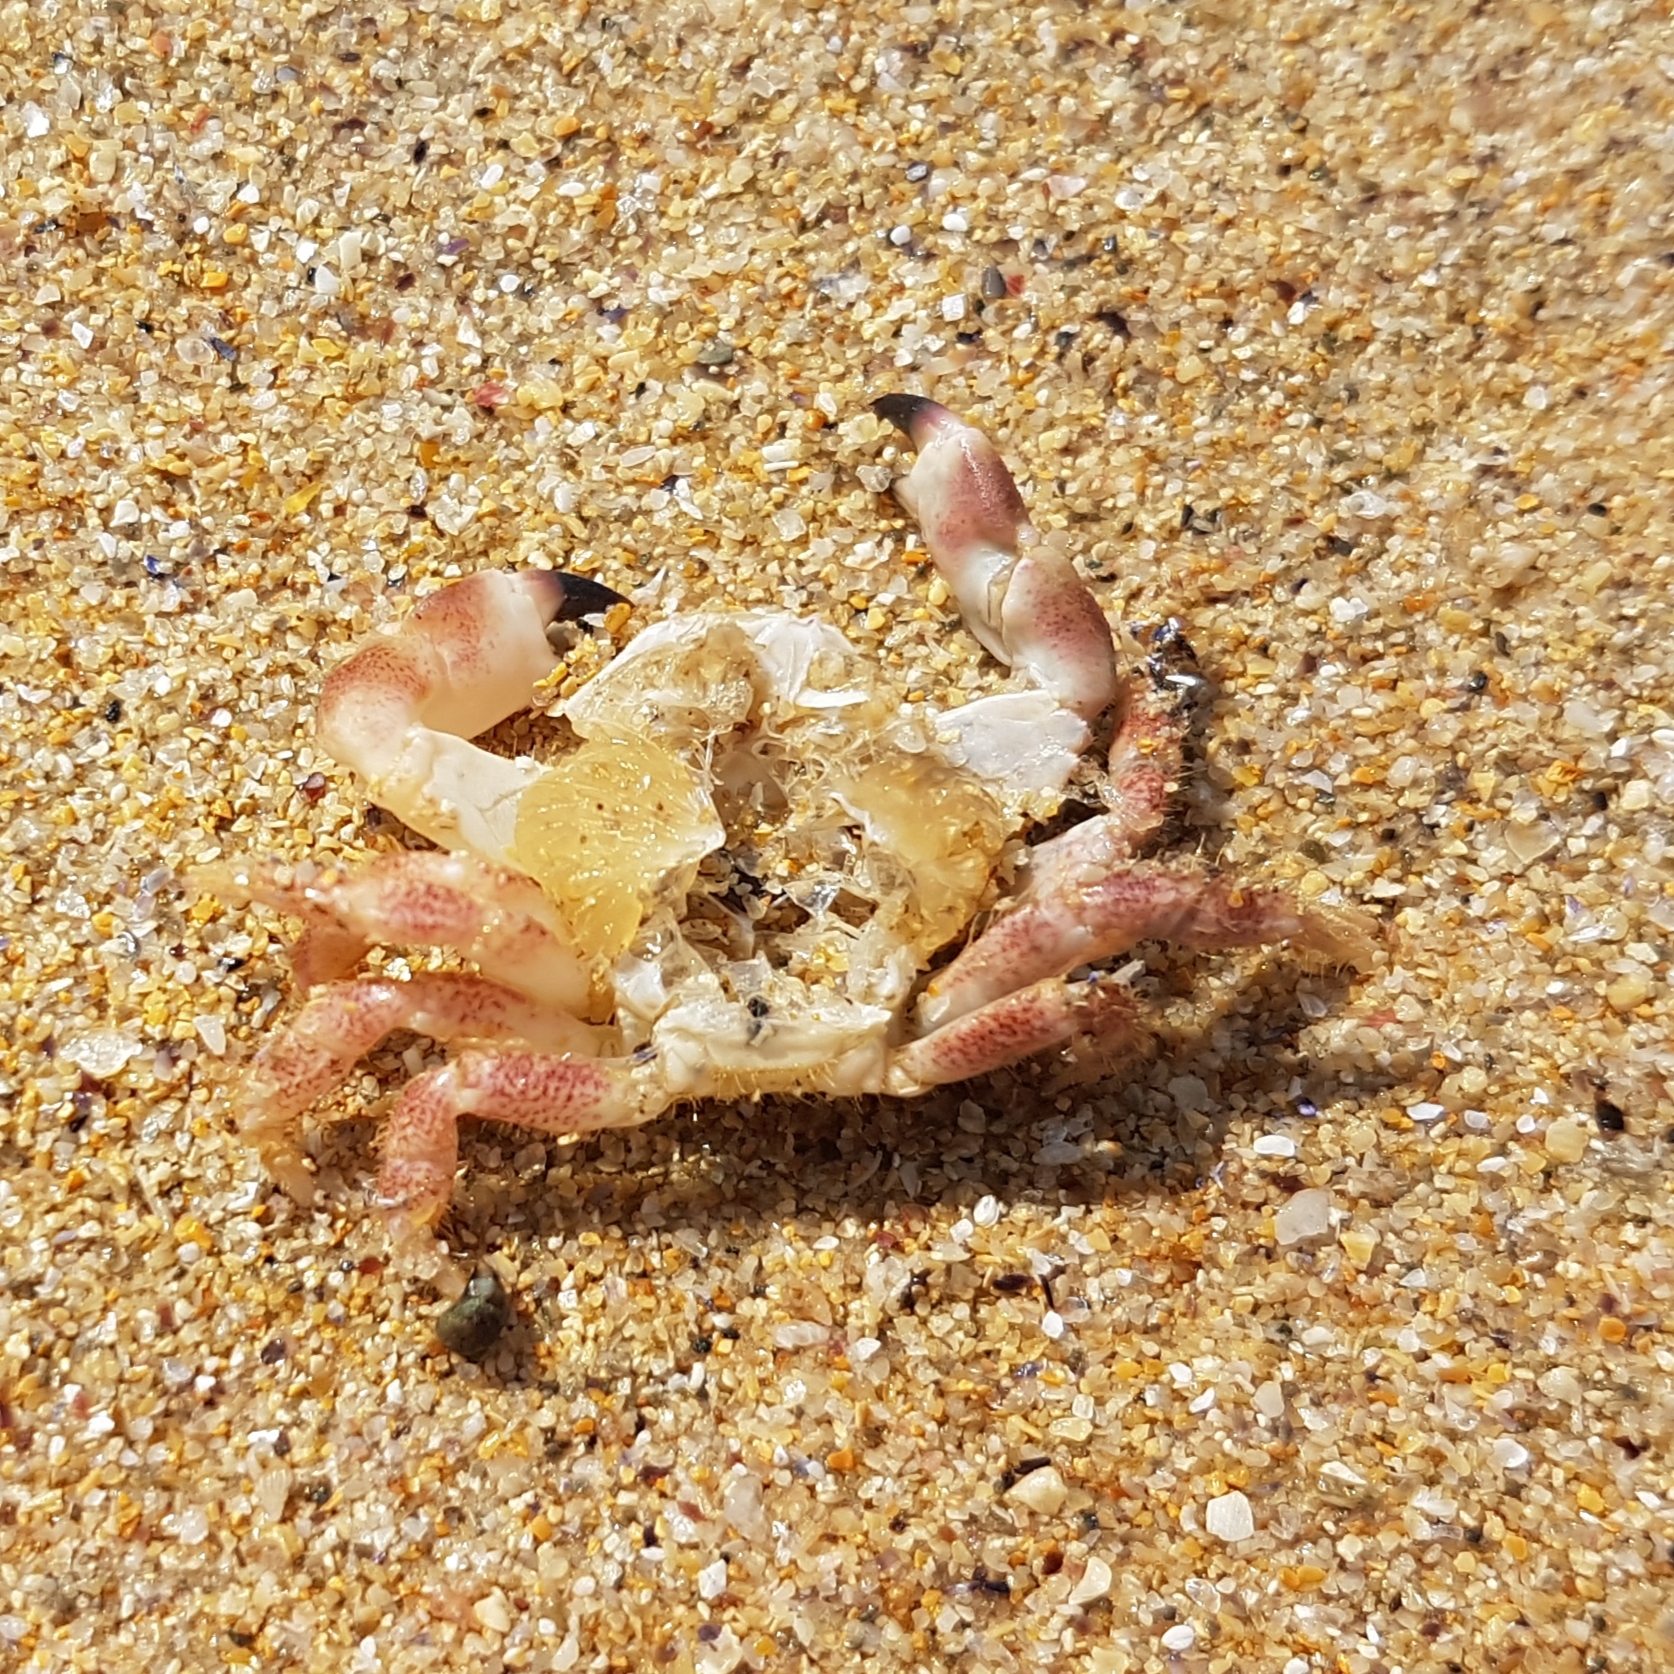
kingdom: Animalia
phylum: Arthropoda
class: Malacostraca
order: Decapoda
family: Cancridae
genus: Cancer
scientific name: Cancer pagurus
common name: Edible crab
